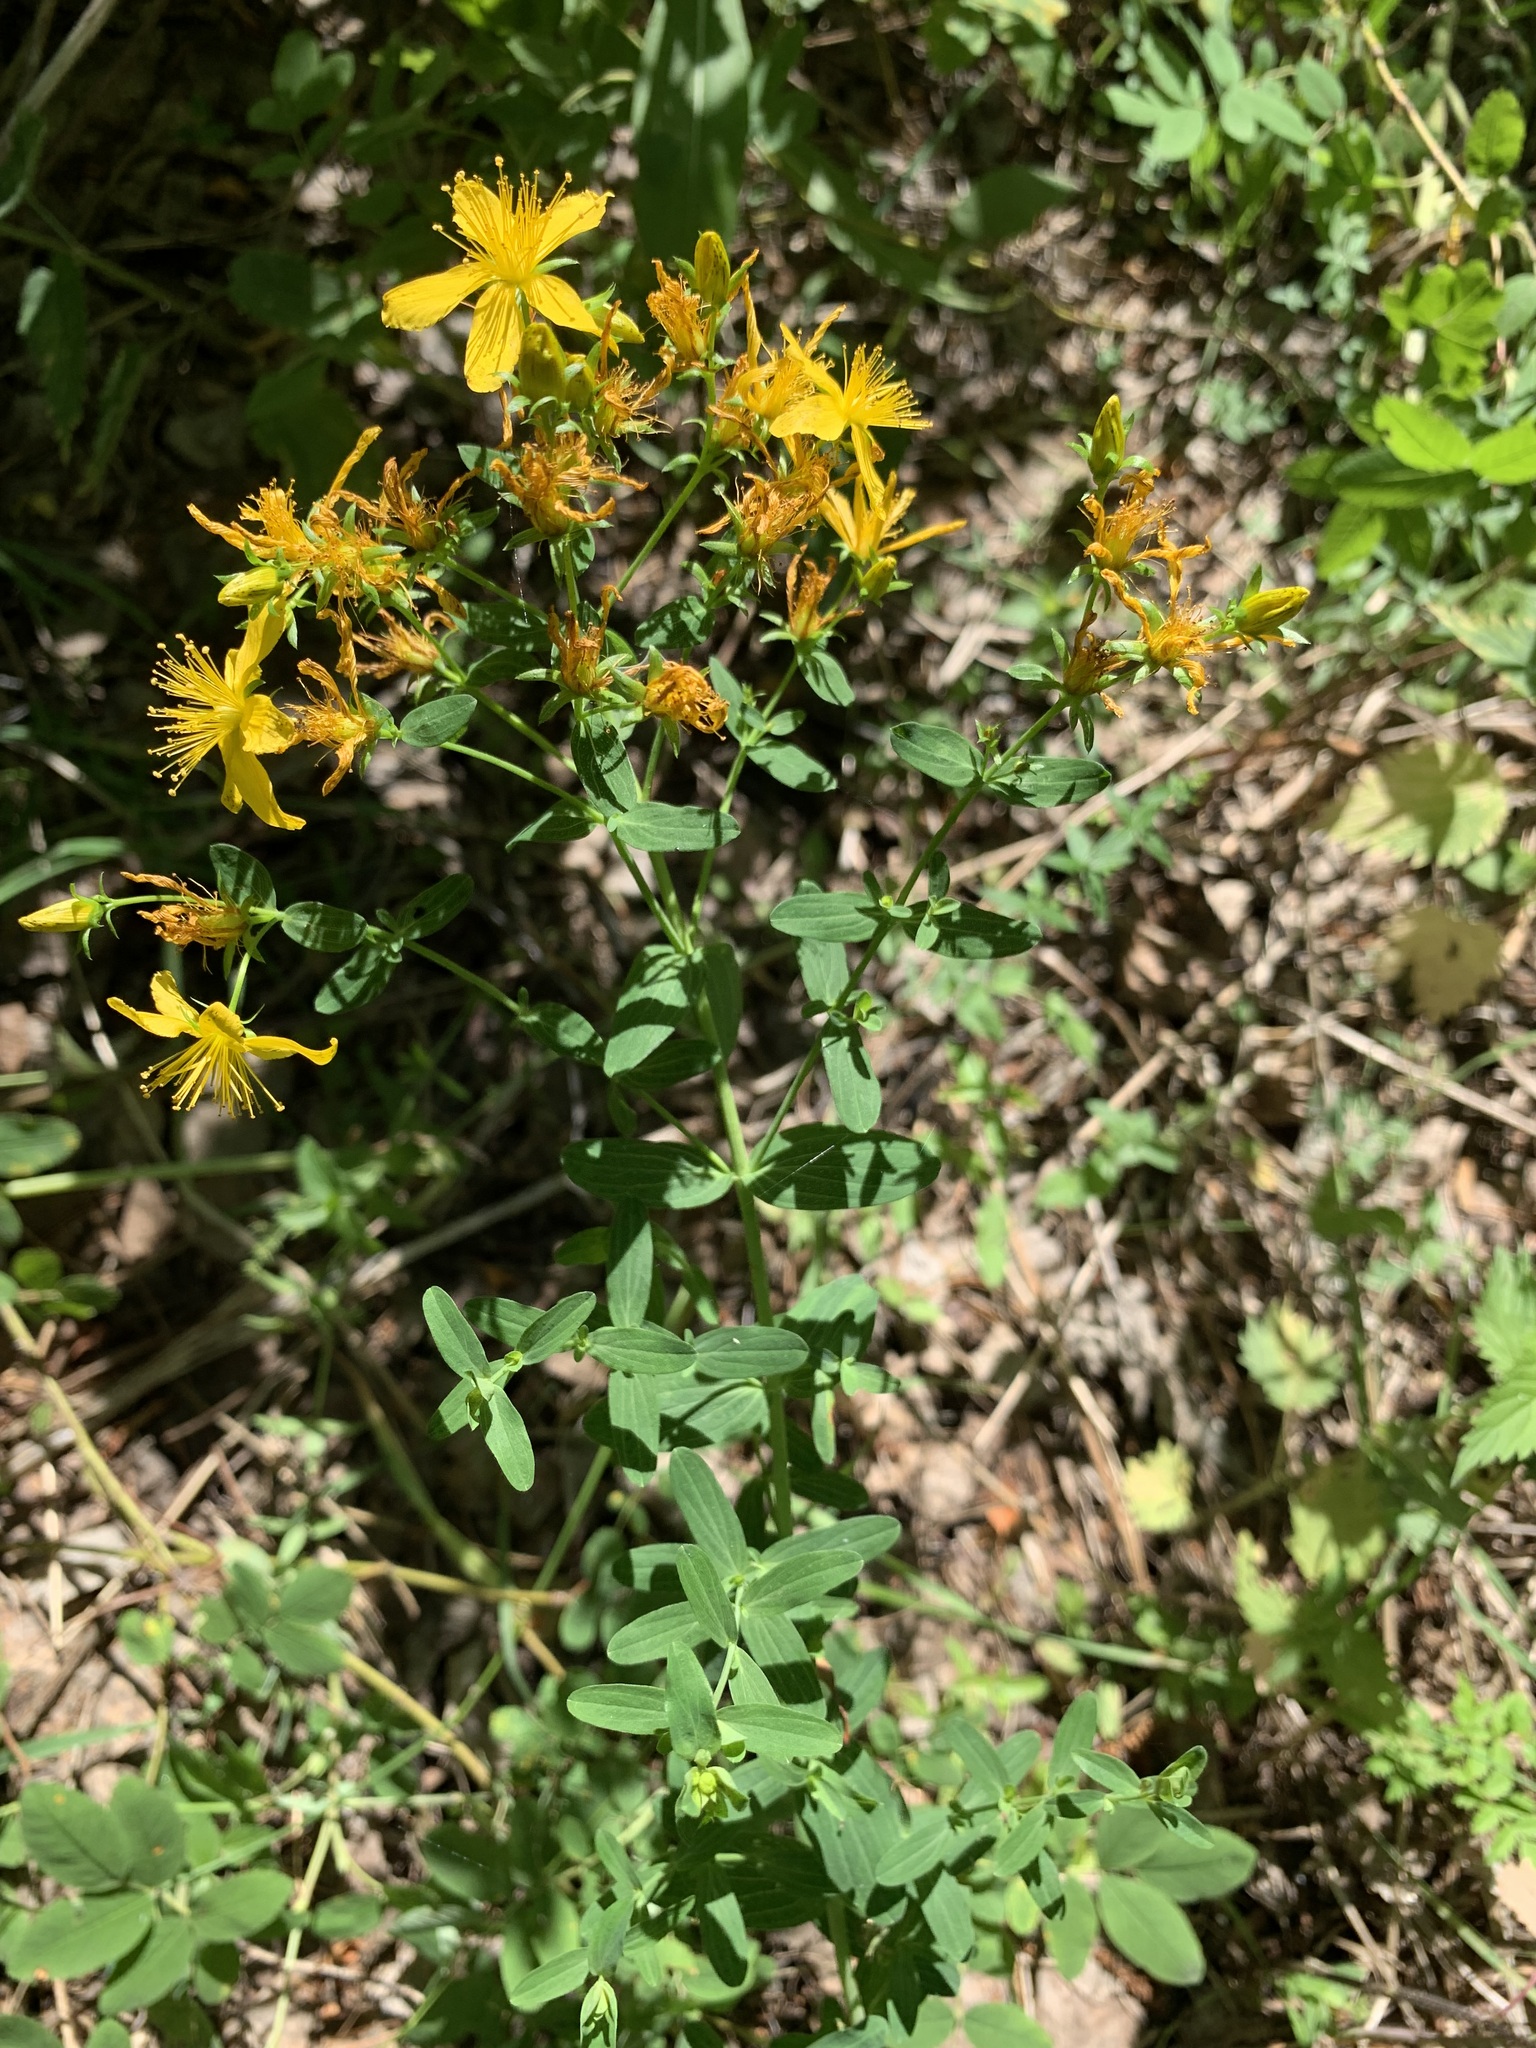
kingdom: Plantae
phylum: Tracheophyta
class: Magnoliopsida
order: Malpighiales
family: Hypericaceae
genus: Hypericum
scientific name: Hypericum perforatum
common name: Common st. johnswort
